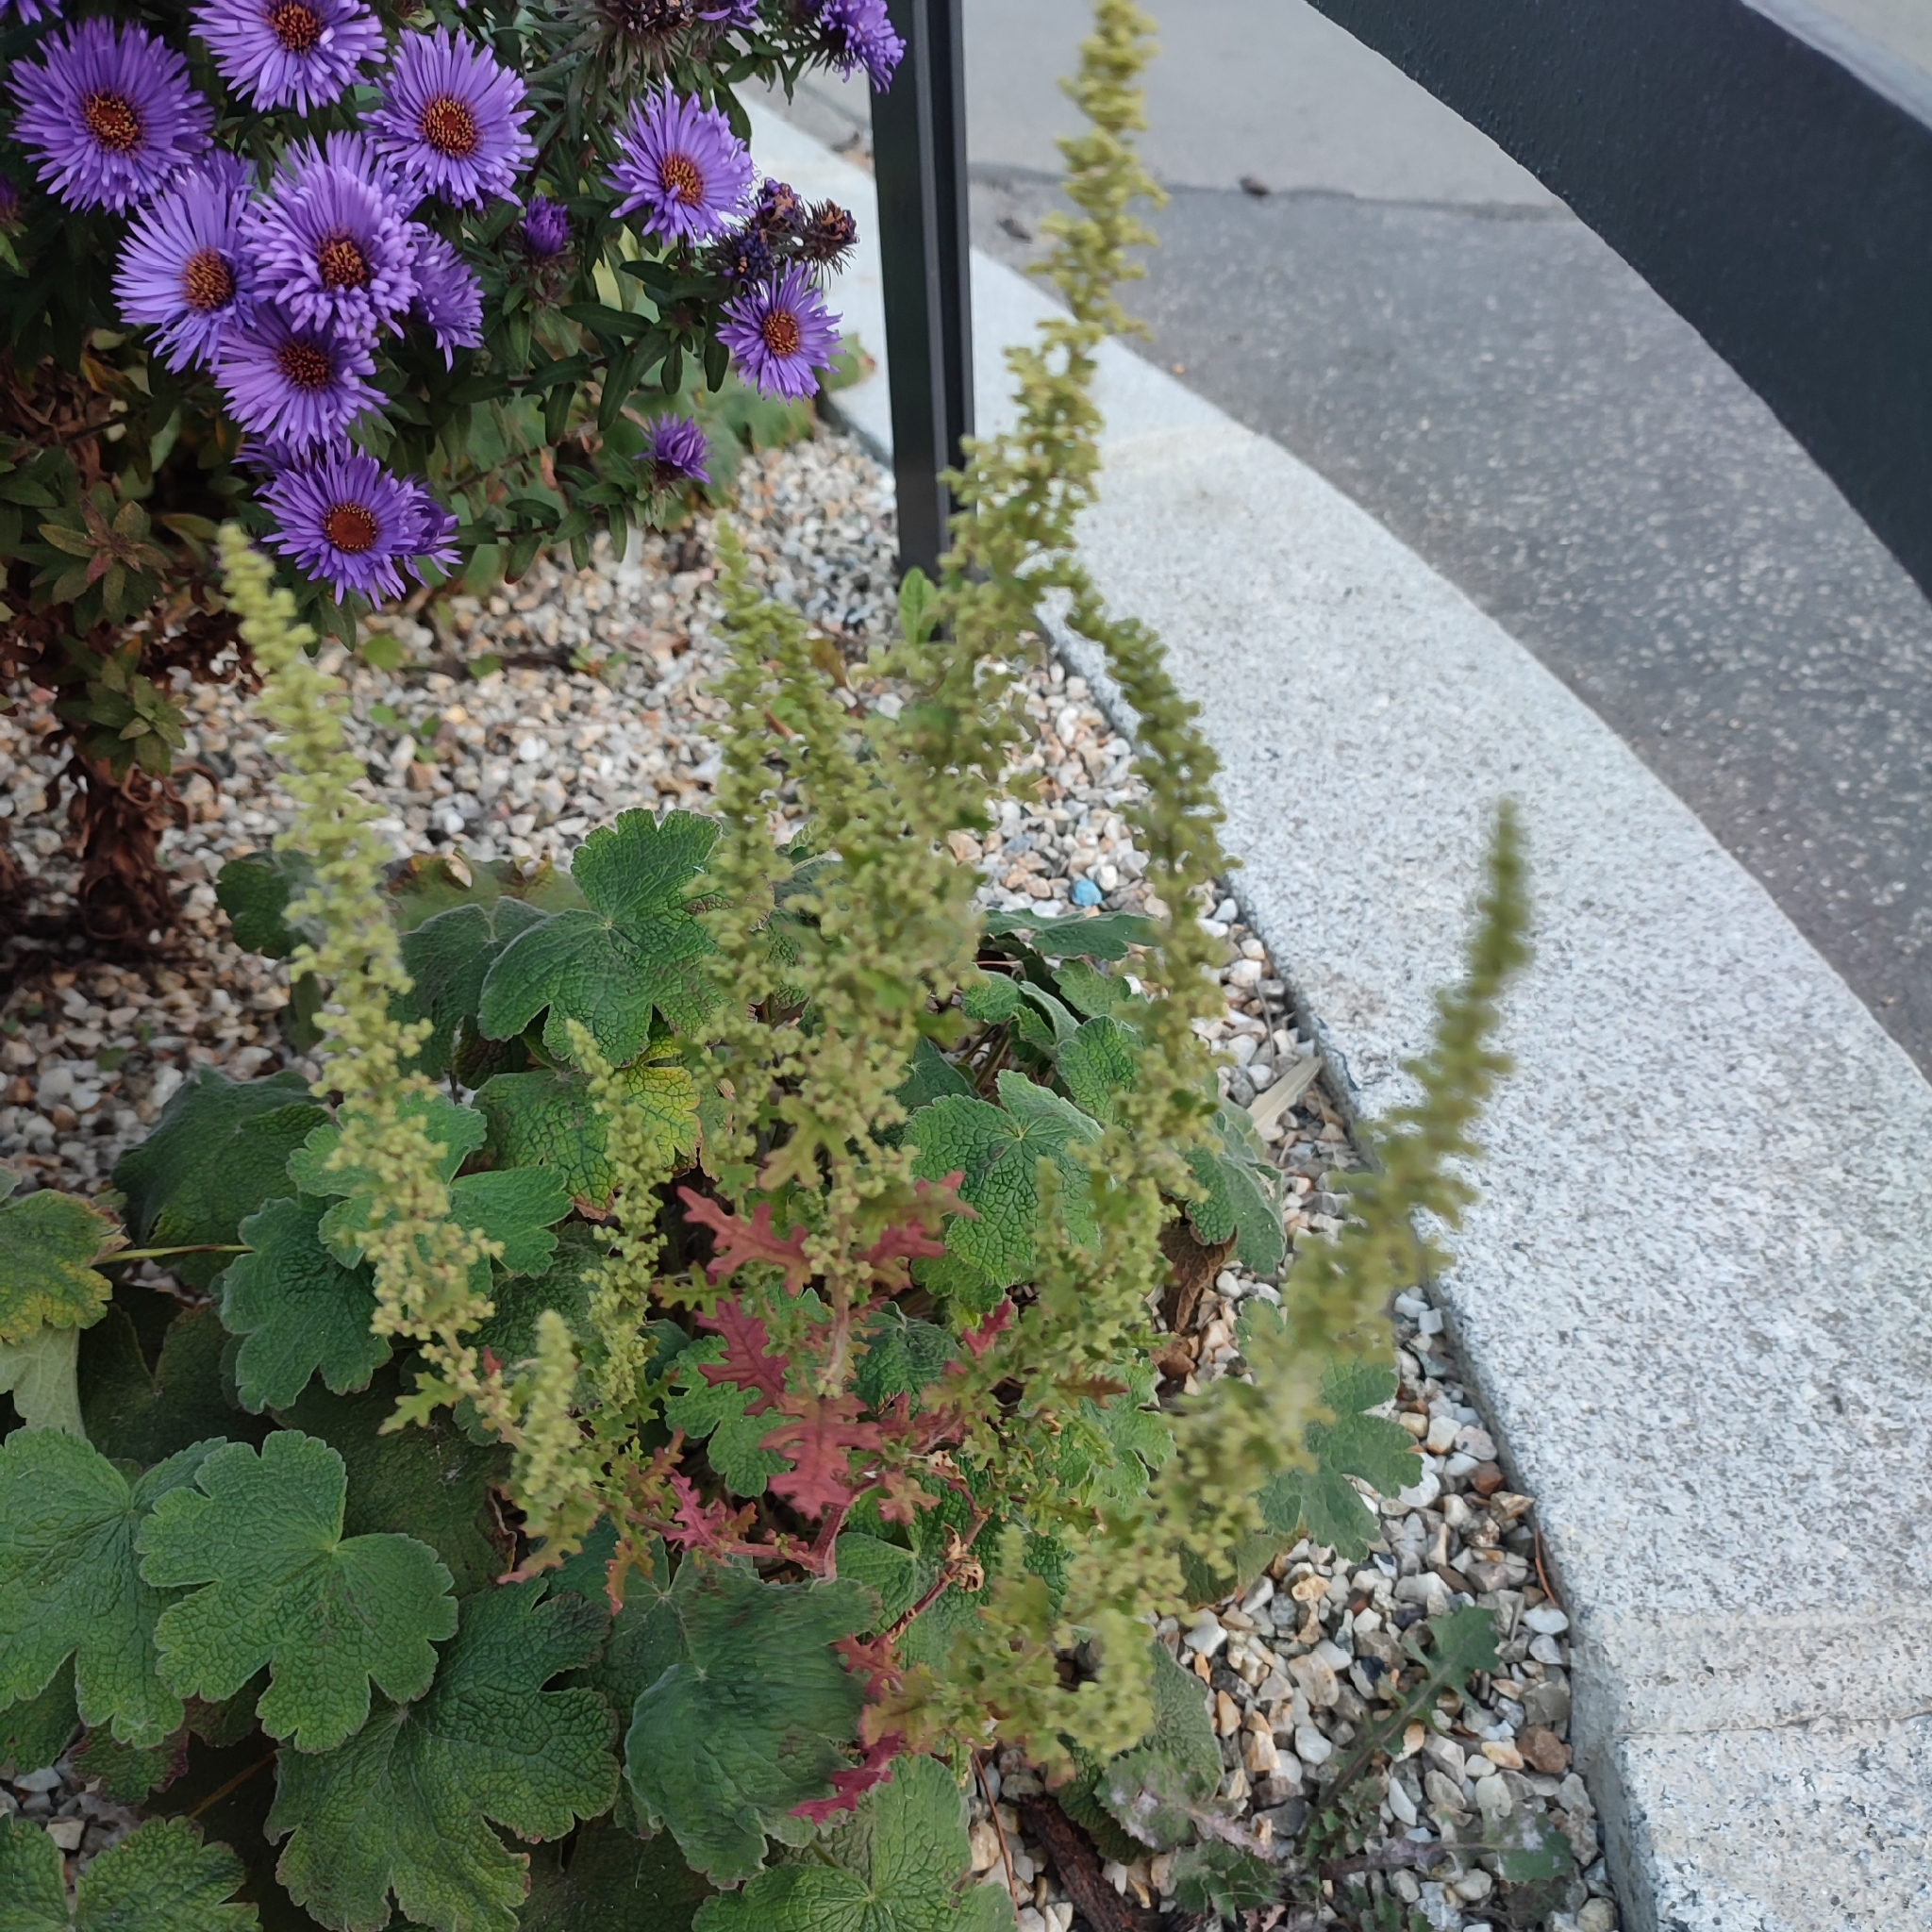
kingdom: Plantae
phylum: Tracheophyta
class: Magnoliopsida
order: Caryophyllales
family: Amaranthaceae
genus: Dysphania
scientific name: Dysphania botrys
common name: Feather-geranium
